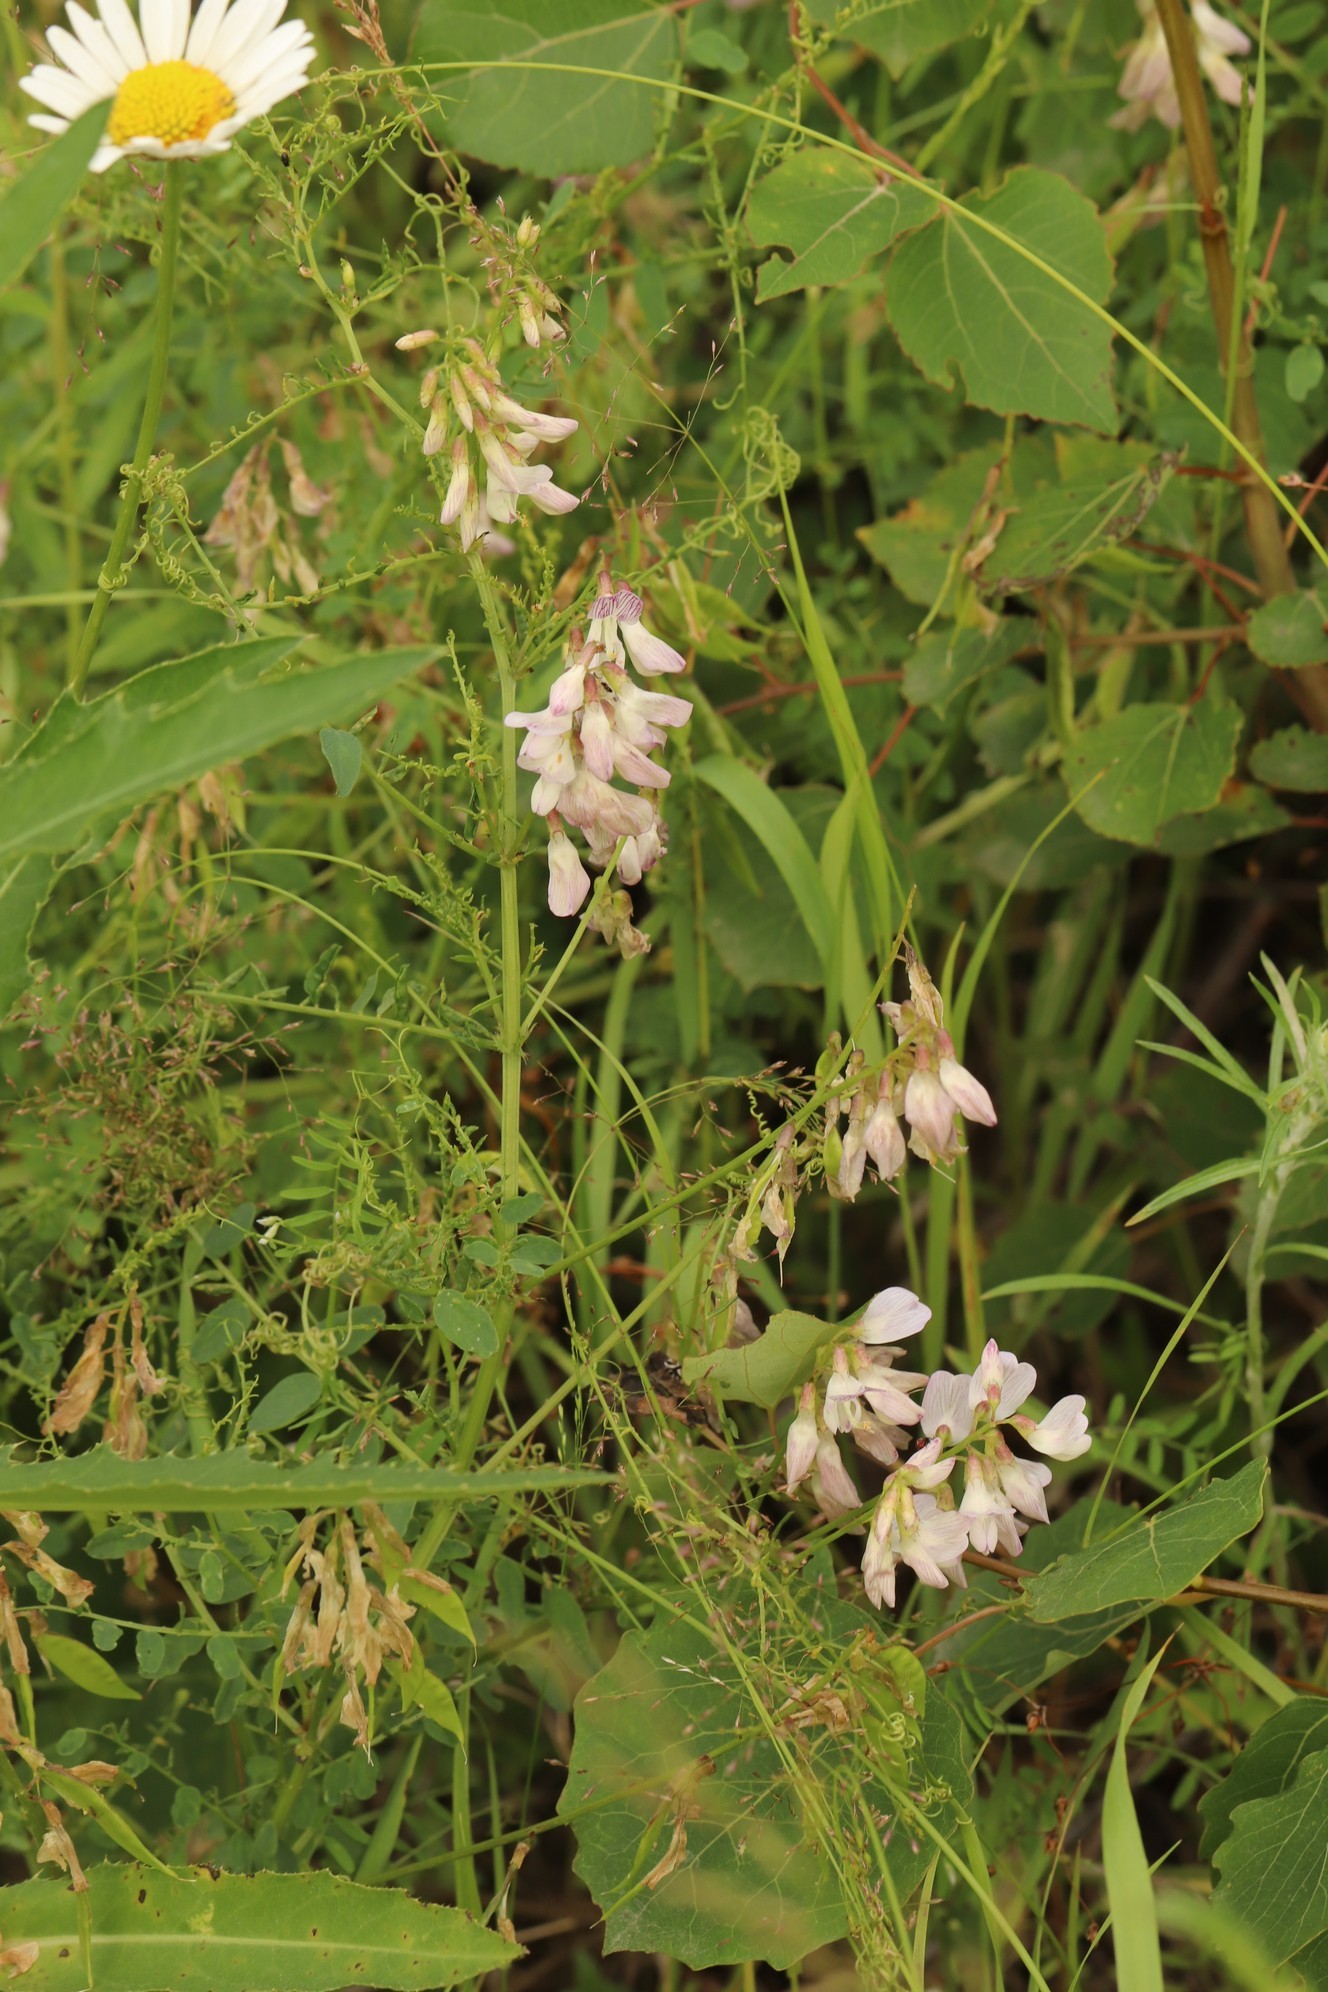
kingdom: Plantae
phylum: Tracheophyta
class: Magnoliopsida
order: Fabales
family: Fabaceae
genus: Vicia
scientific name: Vicia sylvatica
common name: Wood vetch
